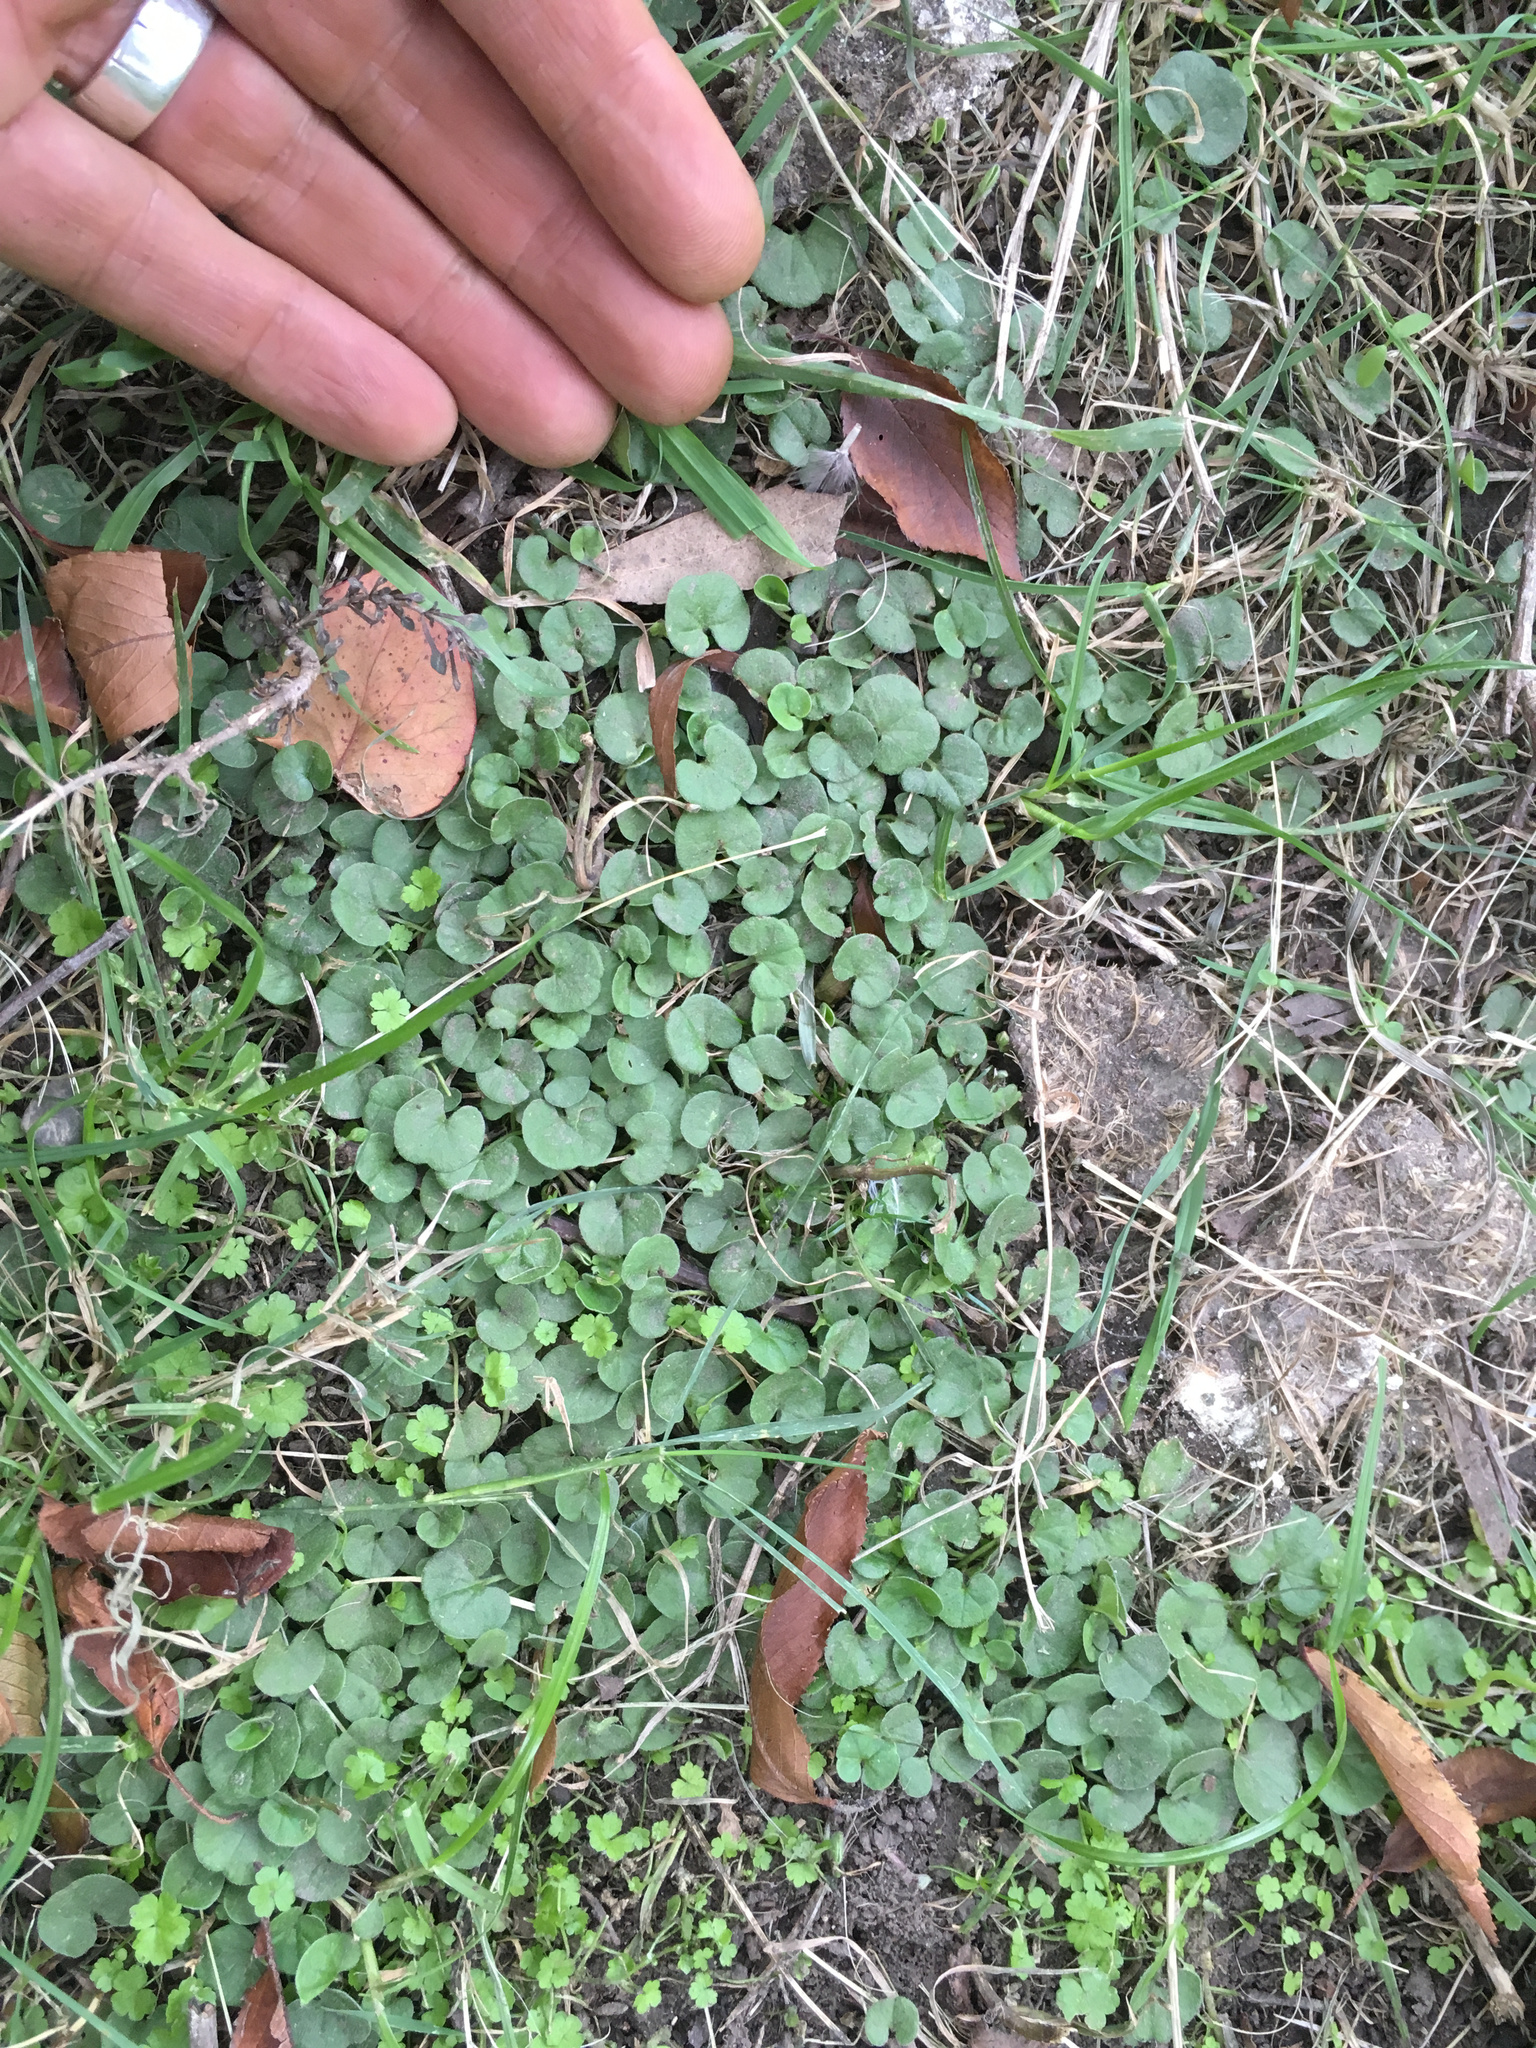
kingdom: Plantae
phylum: Tracheophyta
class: Magnoliopsida
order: Solanales
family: Convolvulaceae
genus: Dichondra
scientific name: Dichondra repens
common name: Kidneyweed
